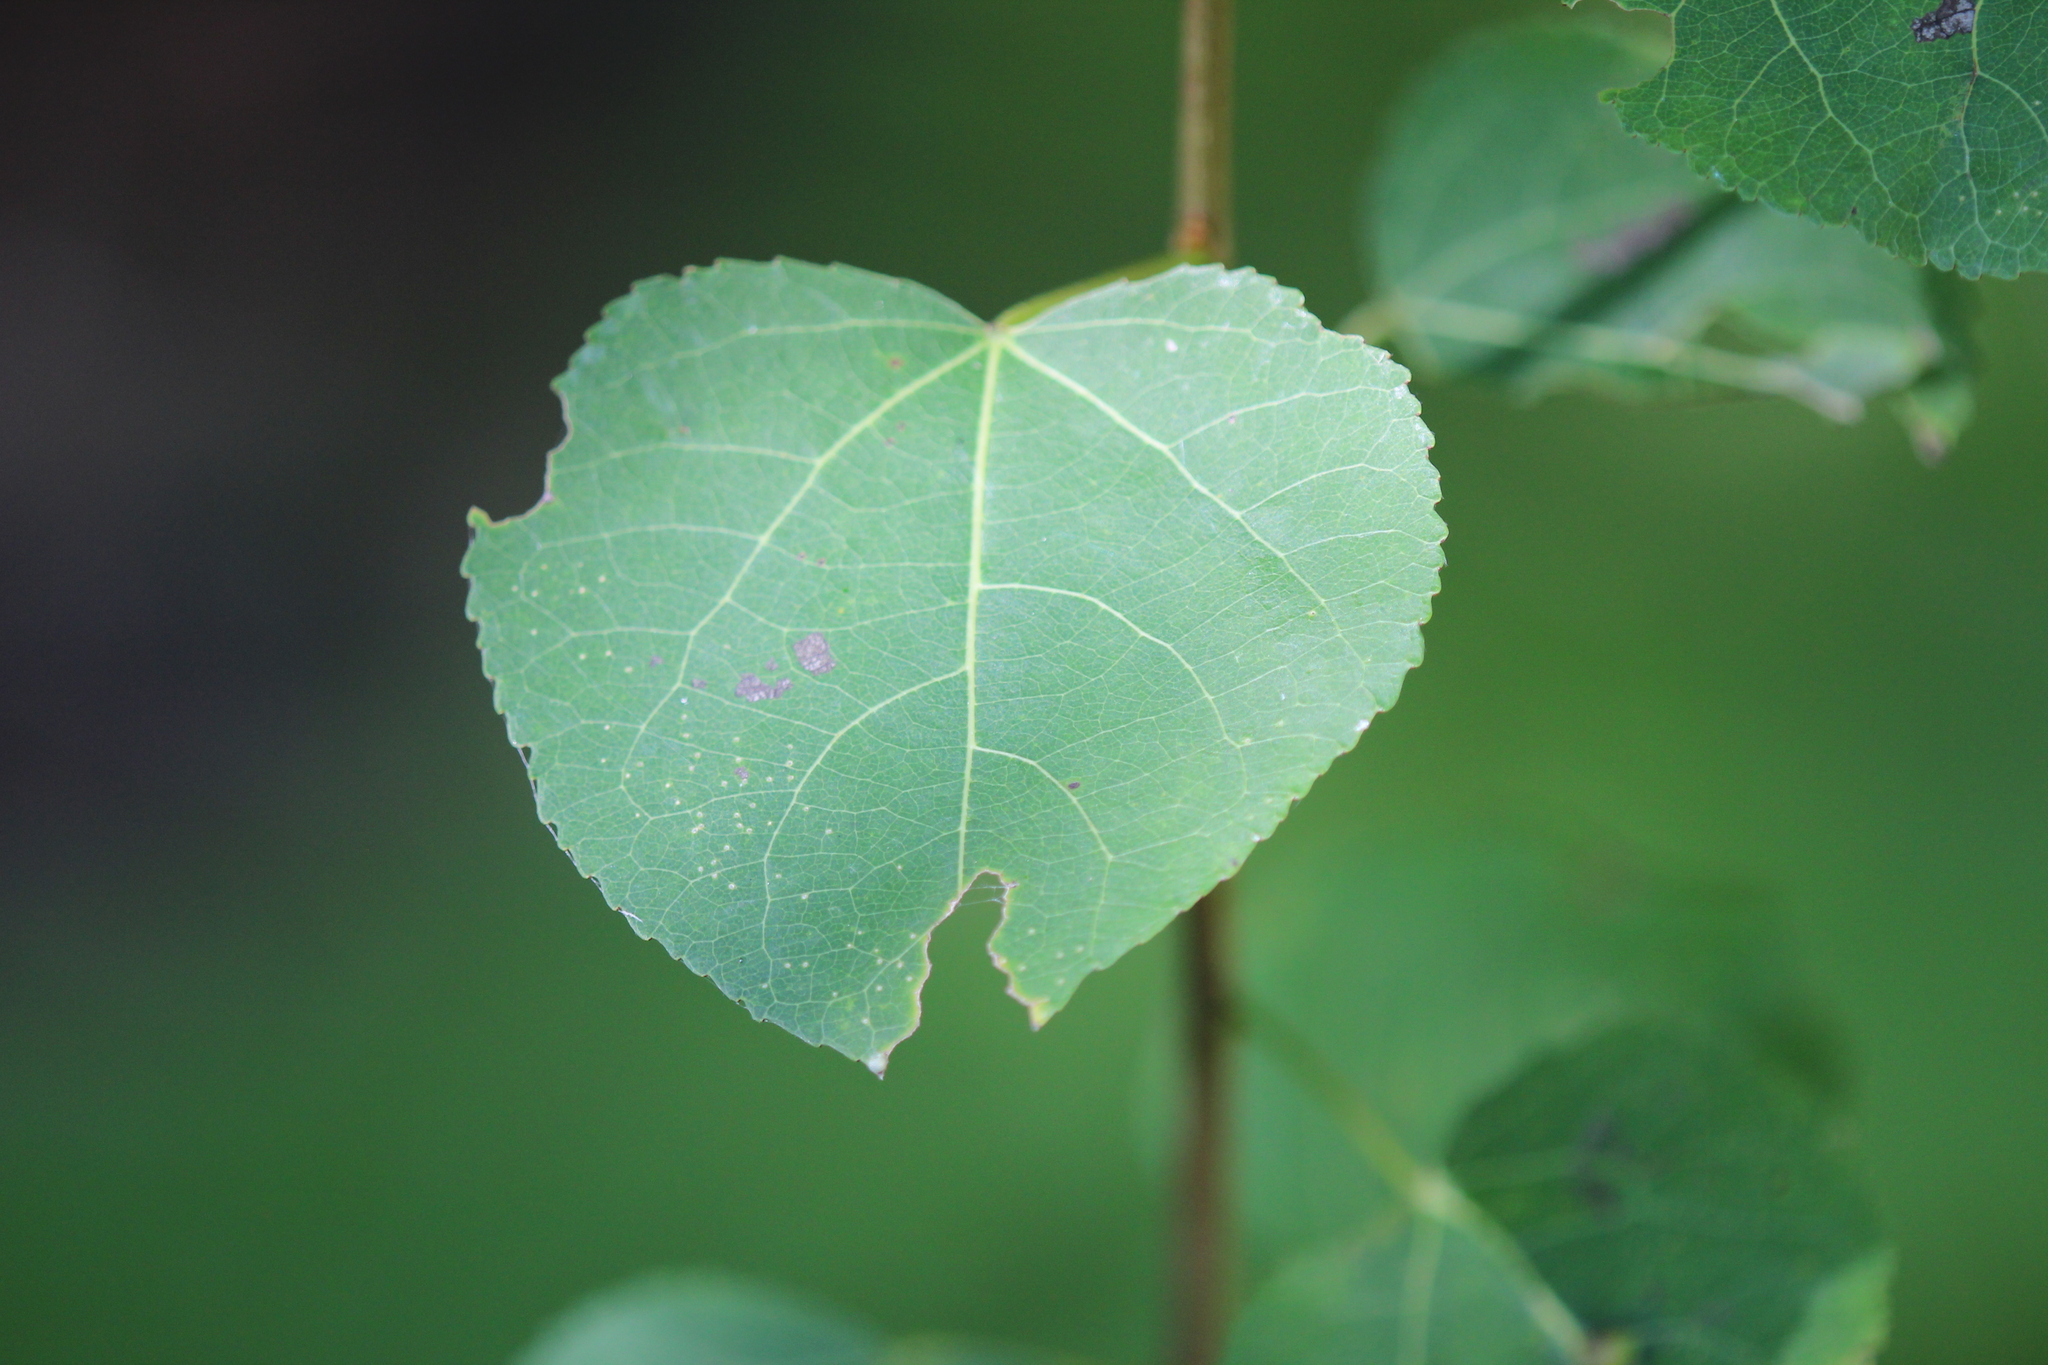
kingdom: Plantae
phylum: Tracheophyta
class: Magnoliopsida
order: Malpighiales
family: Salicaceae
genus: Populus
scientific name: Populus tremuloides
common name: Quaking aspen
